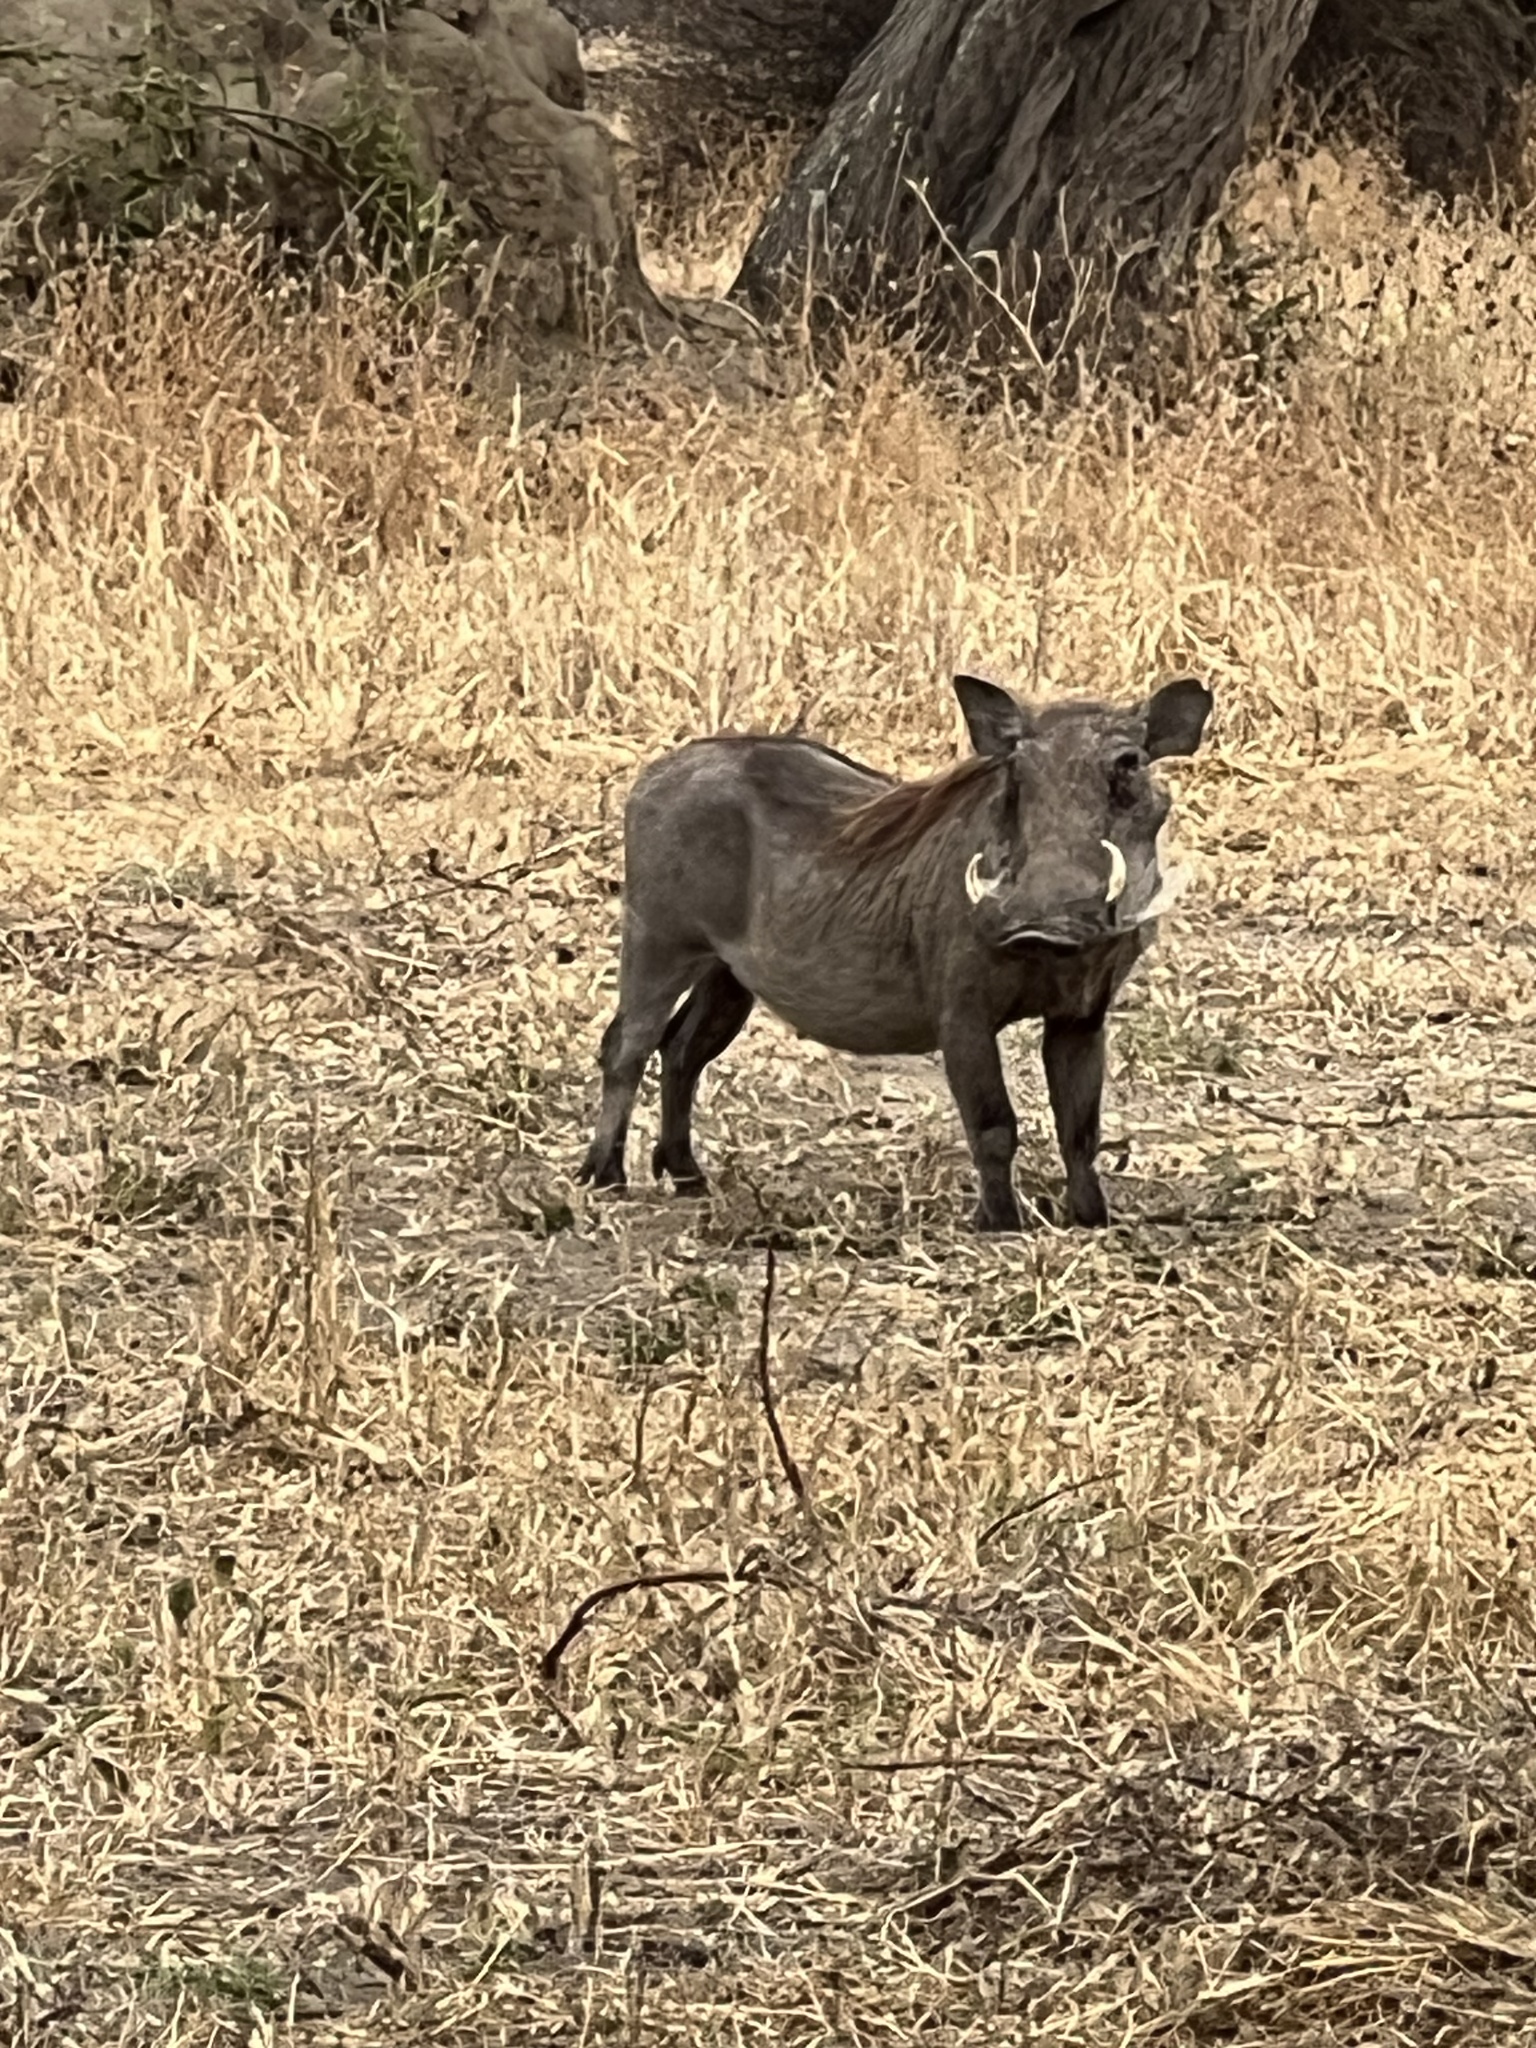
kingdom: Animalia
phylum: Chordata
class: Mammalia
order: Artiodactyla
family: Suidae
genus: Phacochoerus
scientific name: Phacochoerus africanus
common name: Common warthog
